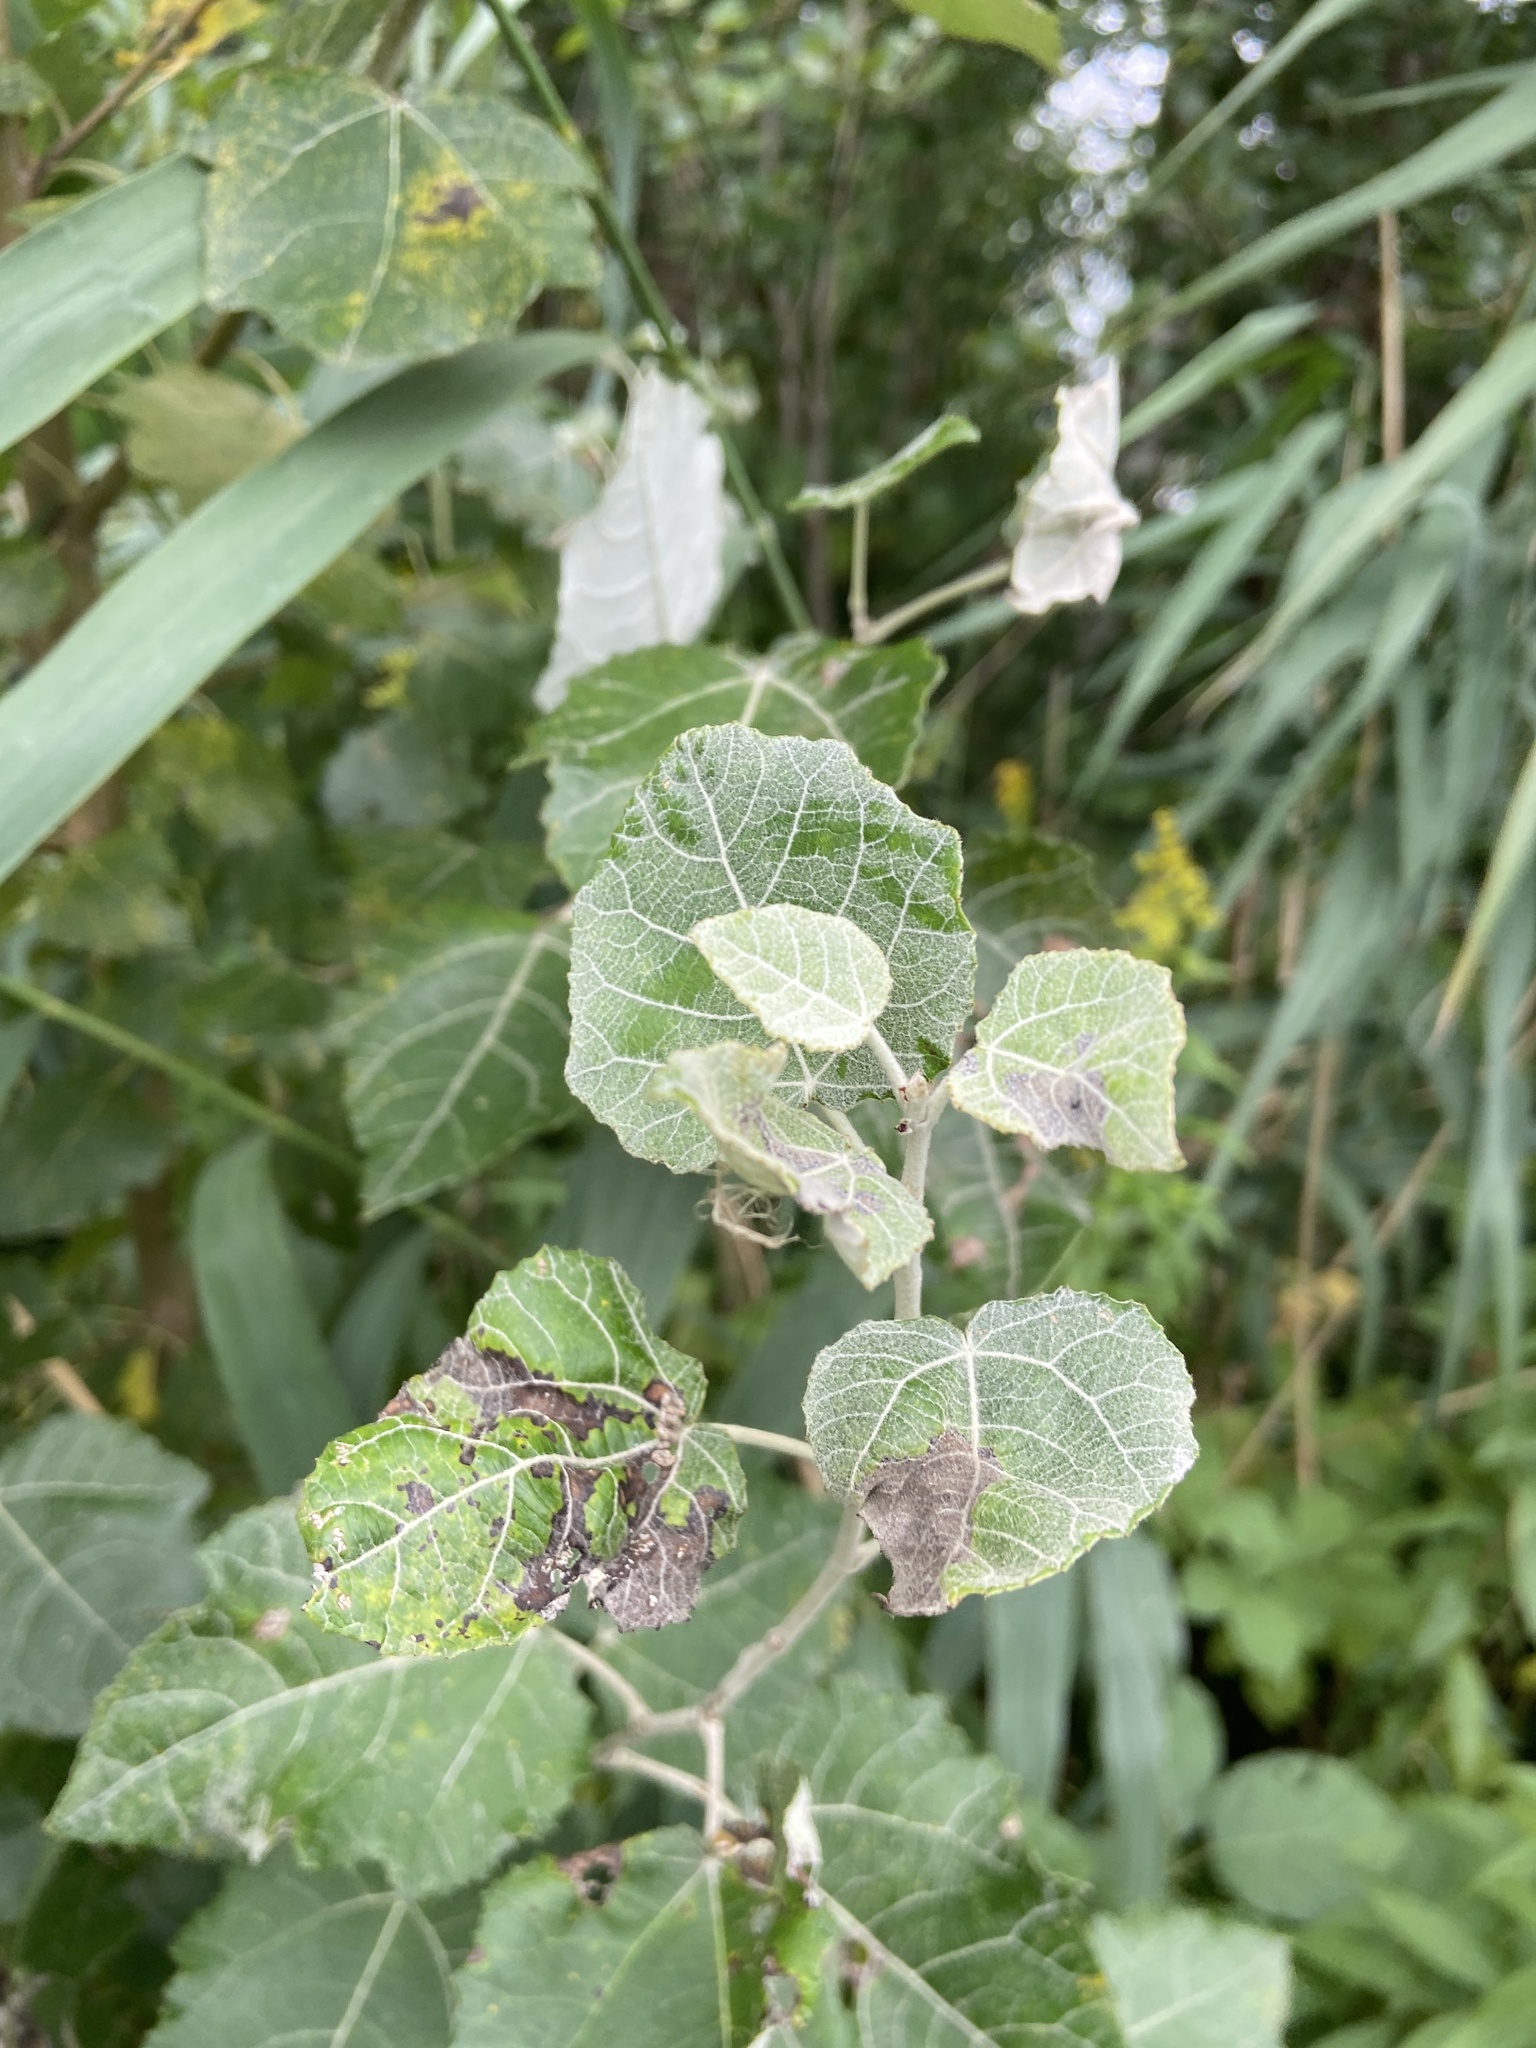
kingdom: Plantae
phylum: Tracheophyta
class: Magnoliopsida
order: Malpighiales
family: Salicaceae
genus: Populus
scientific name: Populus alba
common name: White poplar
